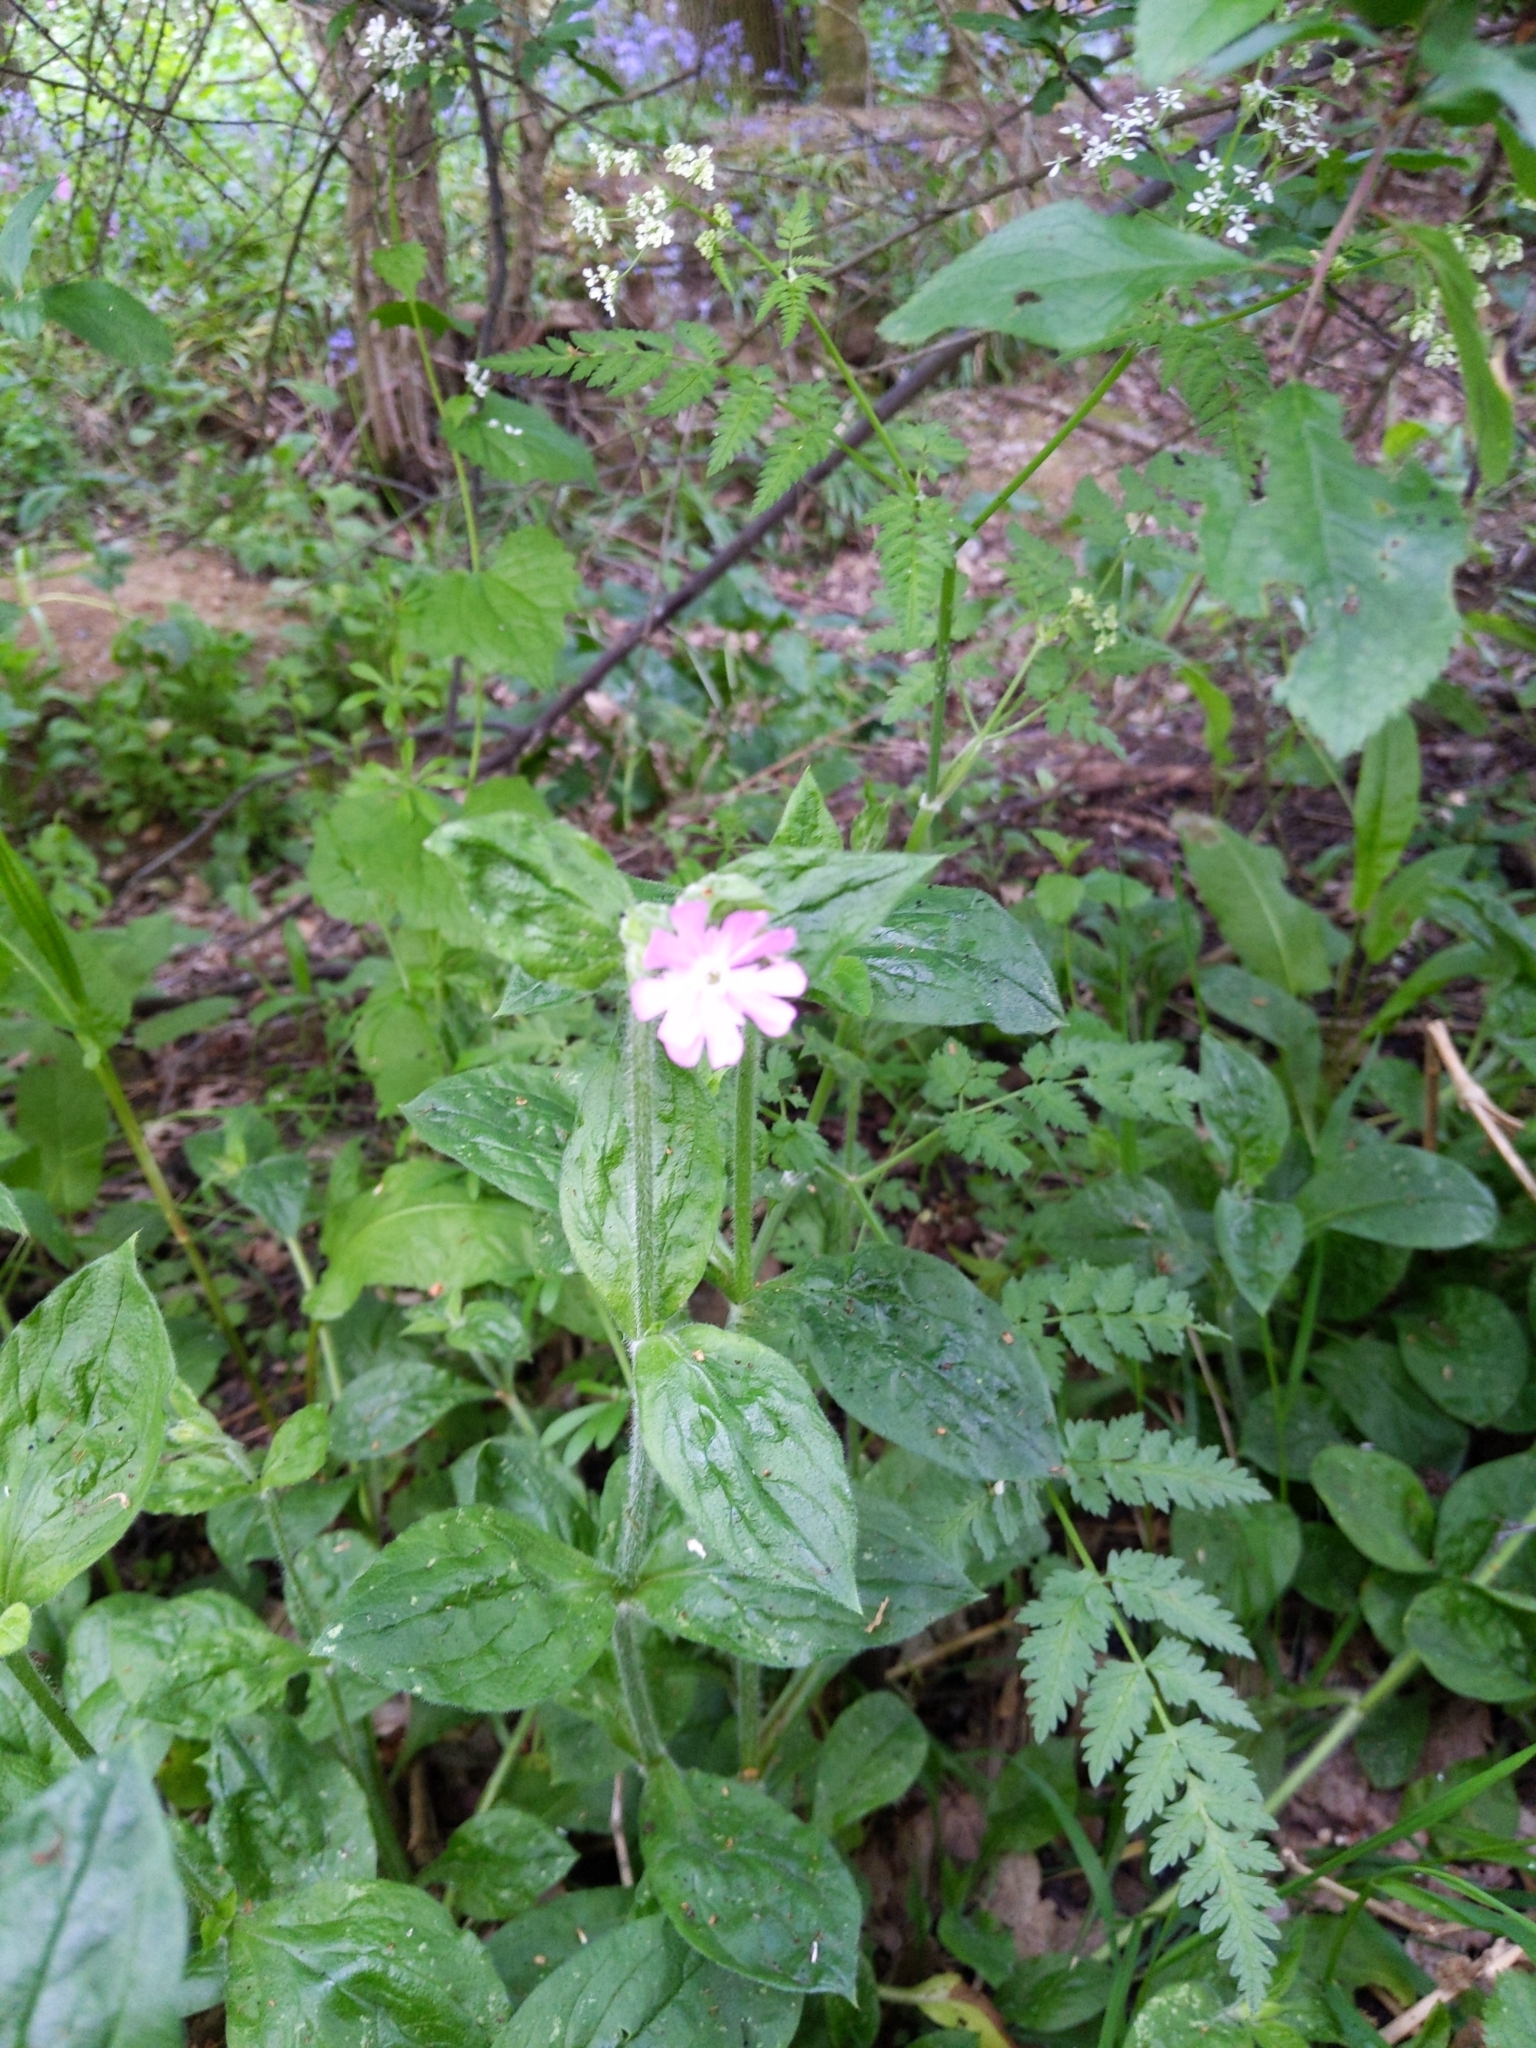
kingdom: Plantae
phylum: Tracheophyta
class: Magnoliopsida
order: Caryophyllales
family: Caryophyllaceae
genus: Silene
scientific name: Silene dioica
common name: Red campion
